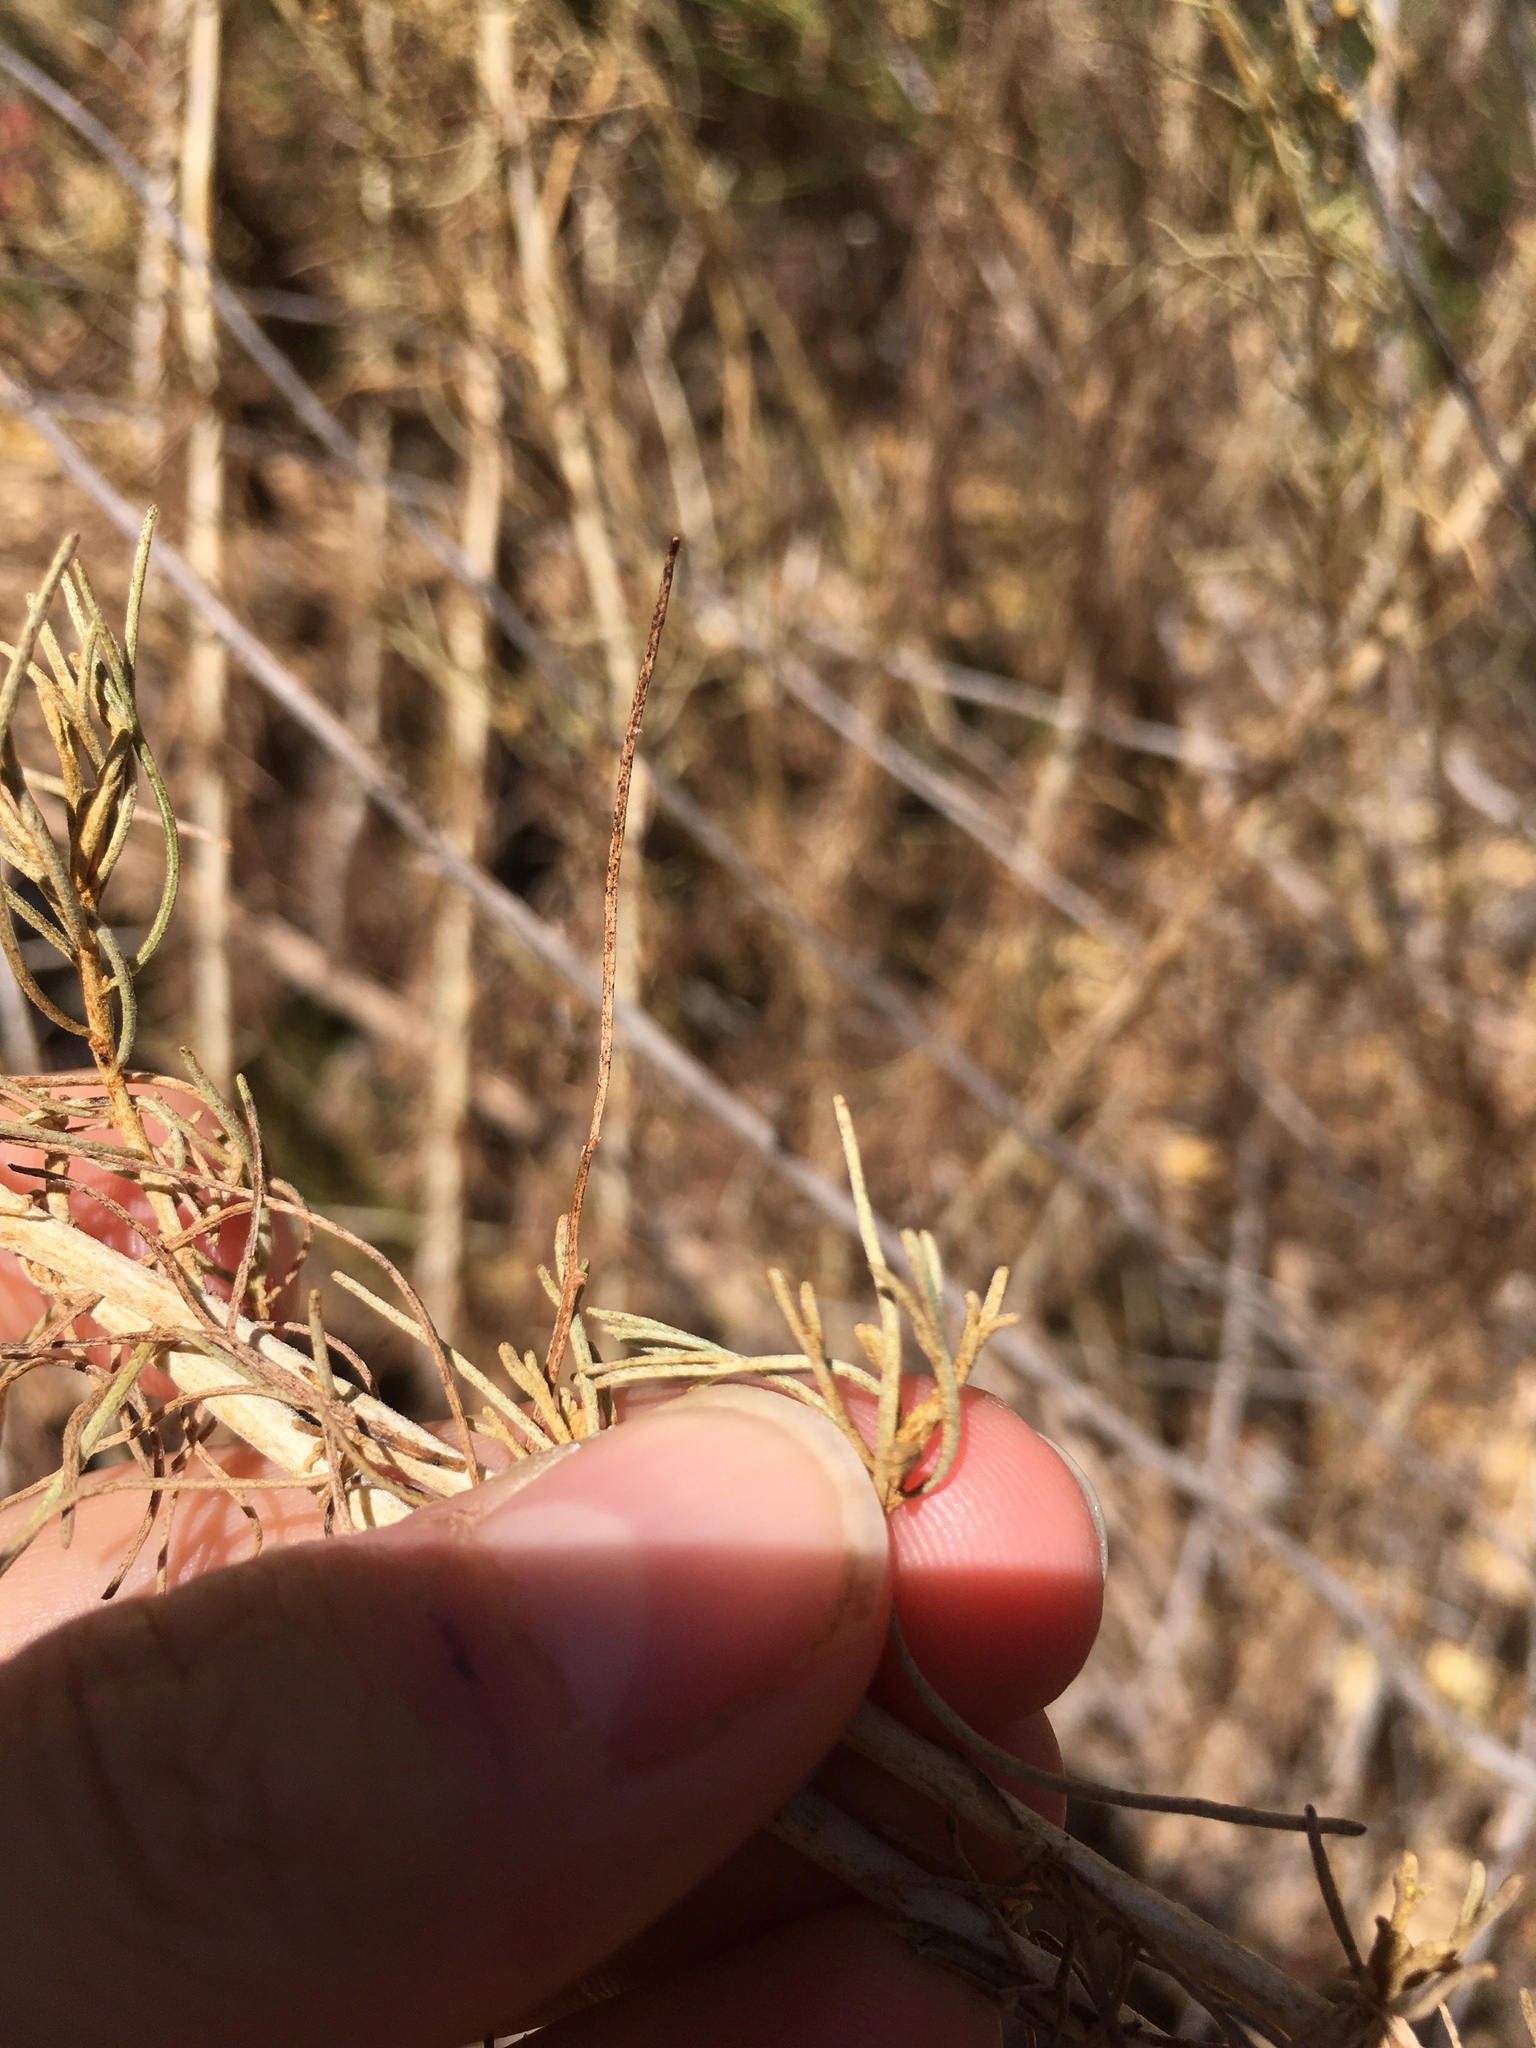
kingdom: Plantae
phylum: Tracheophyta
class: Magnoliopsida
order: Asterales
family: Asteraceae
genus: Artemisia
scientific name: Artemisia californica
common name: California sagebrush
